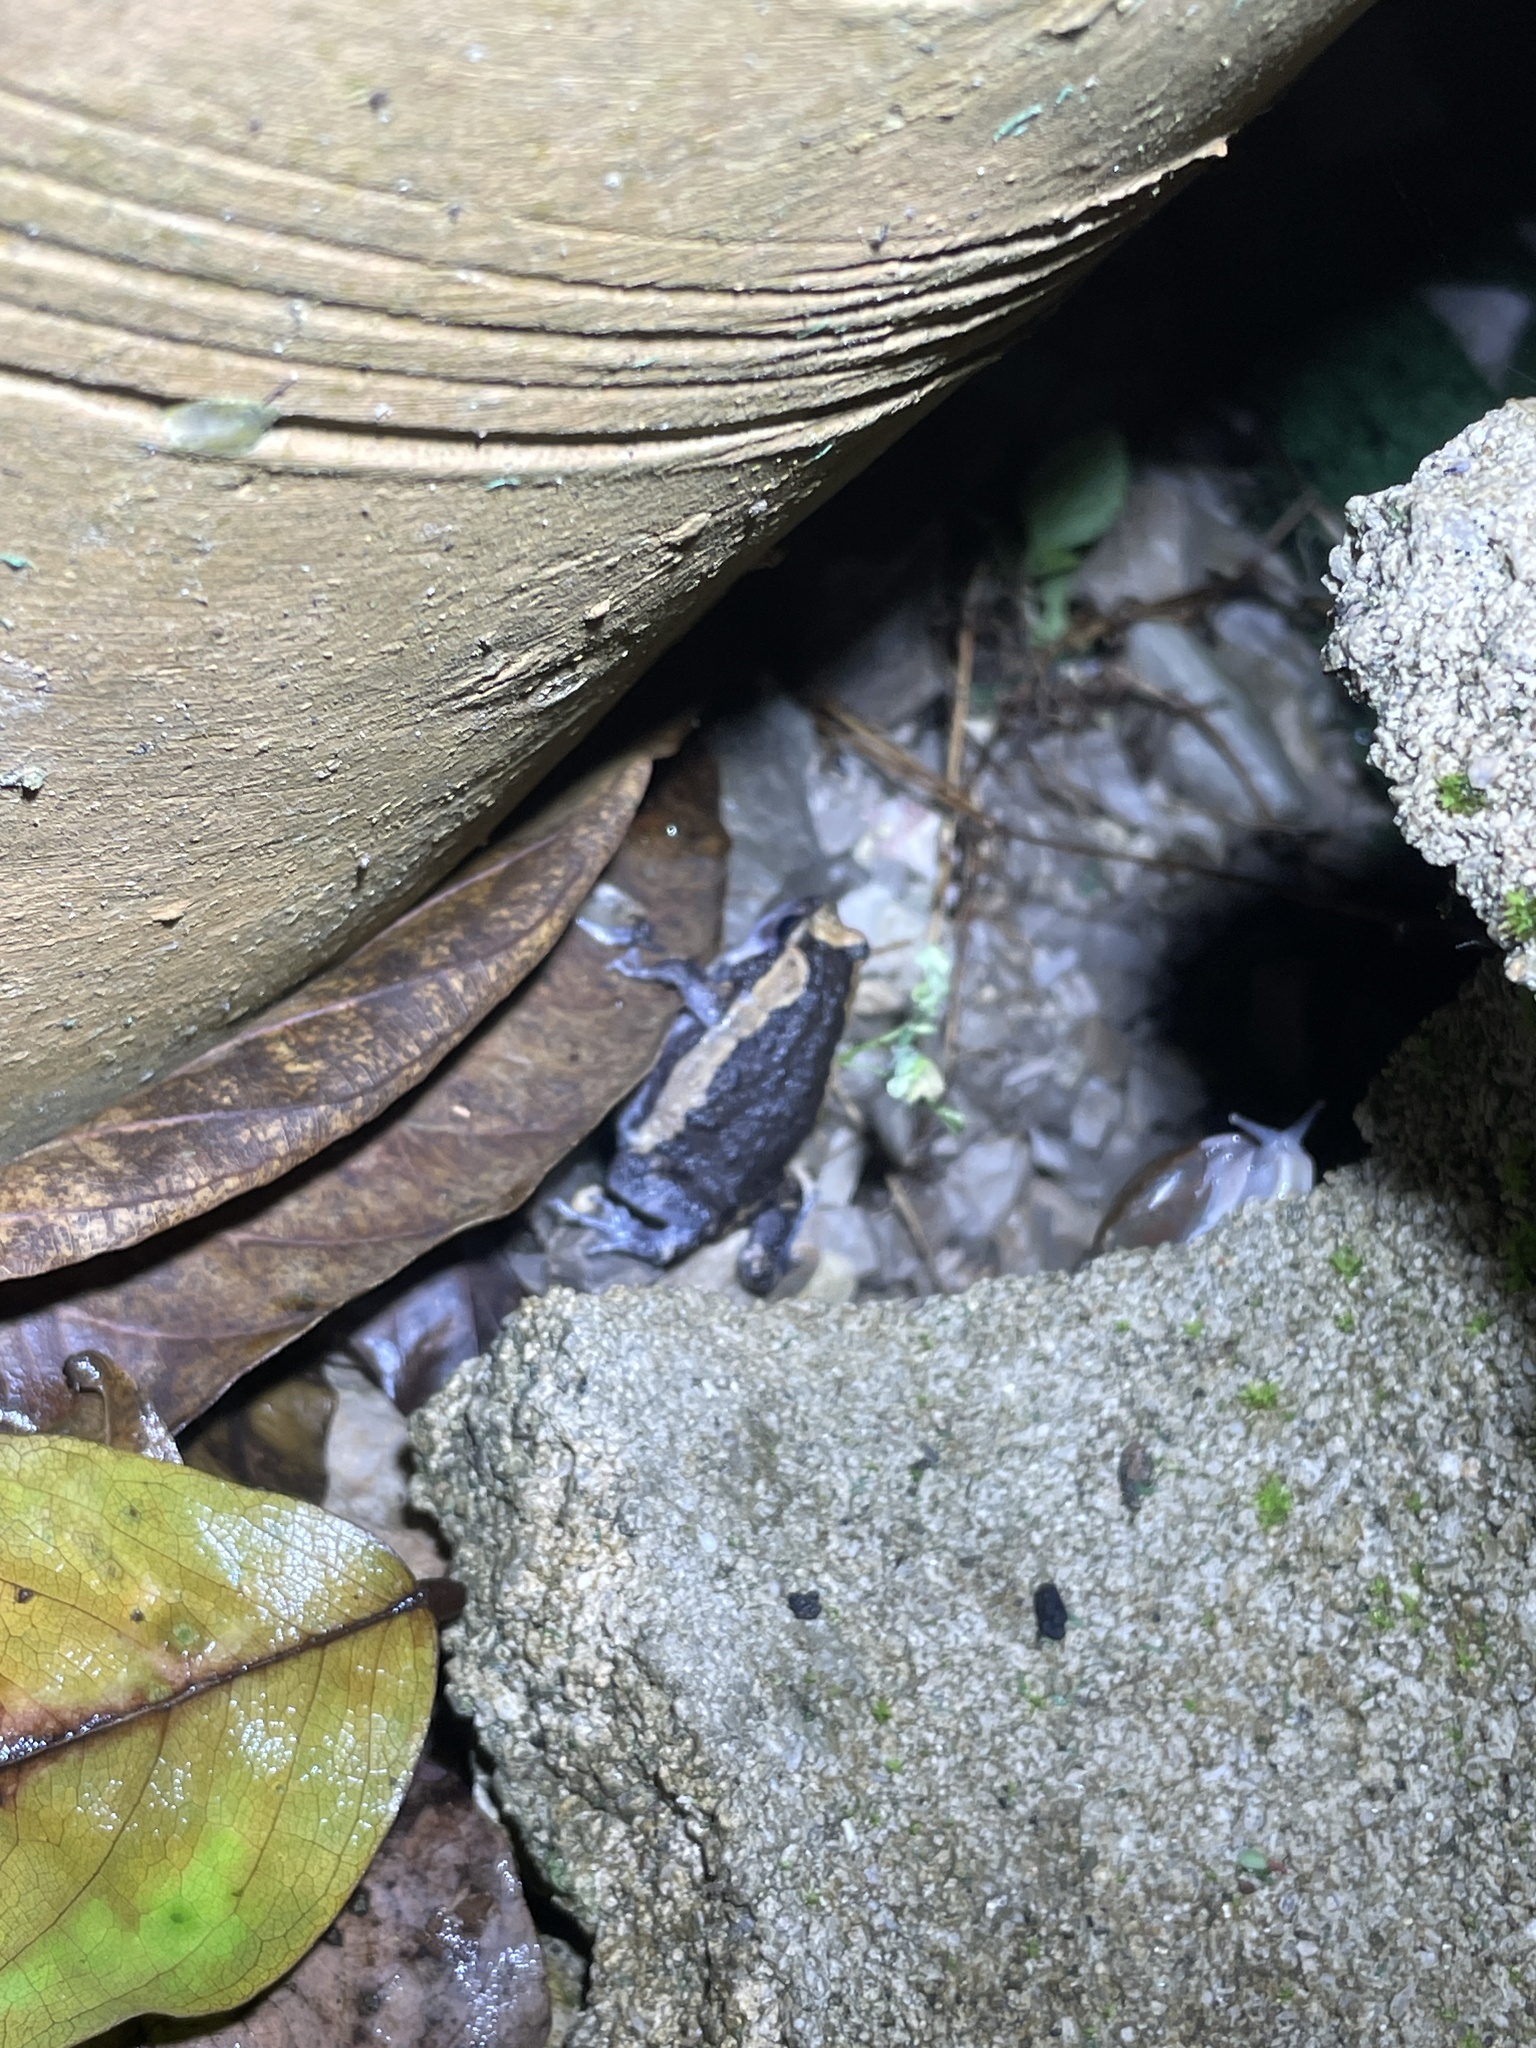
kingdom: Animalia
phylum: Chordata
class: Amphibia
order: Anura
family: Microhylidae
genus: Kaloula
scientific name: Kaloula pulchra
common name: Common,banded bullfrog
